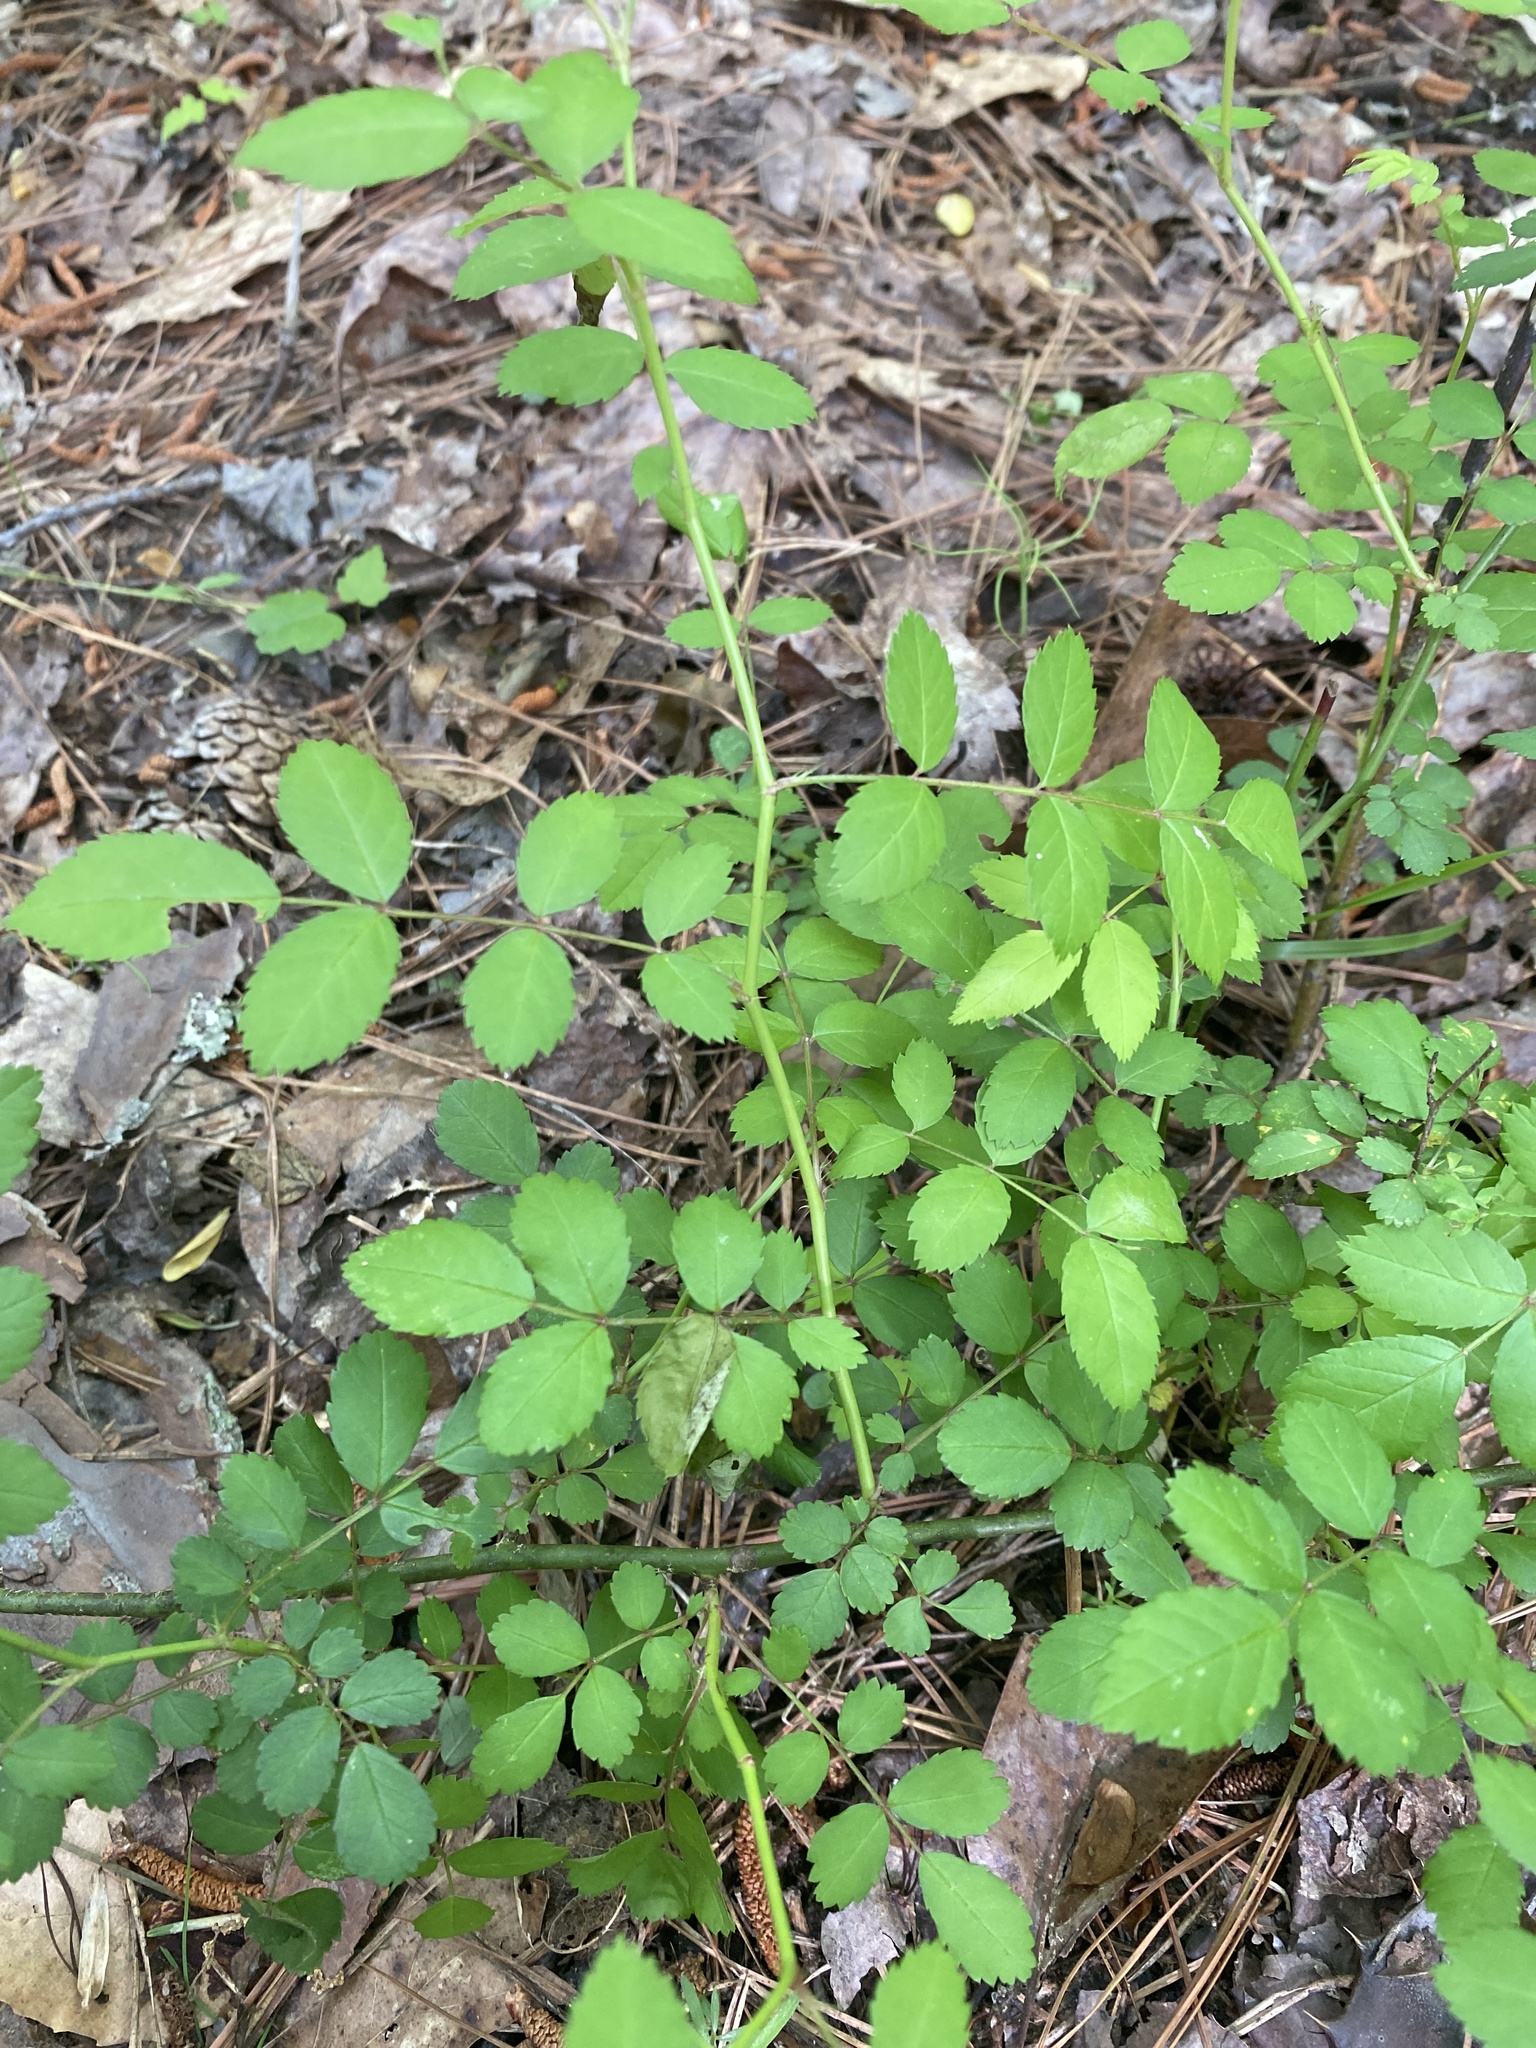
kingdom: Plantae
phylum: Tracheophyta
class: Magnoliopsida
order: Rosales
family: Rosaceae
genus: Rosa
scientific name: Rosa multiflora
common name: Multiflora rose
